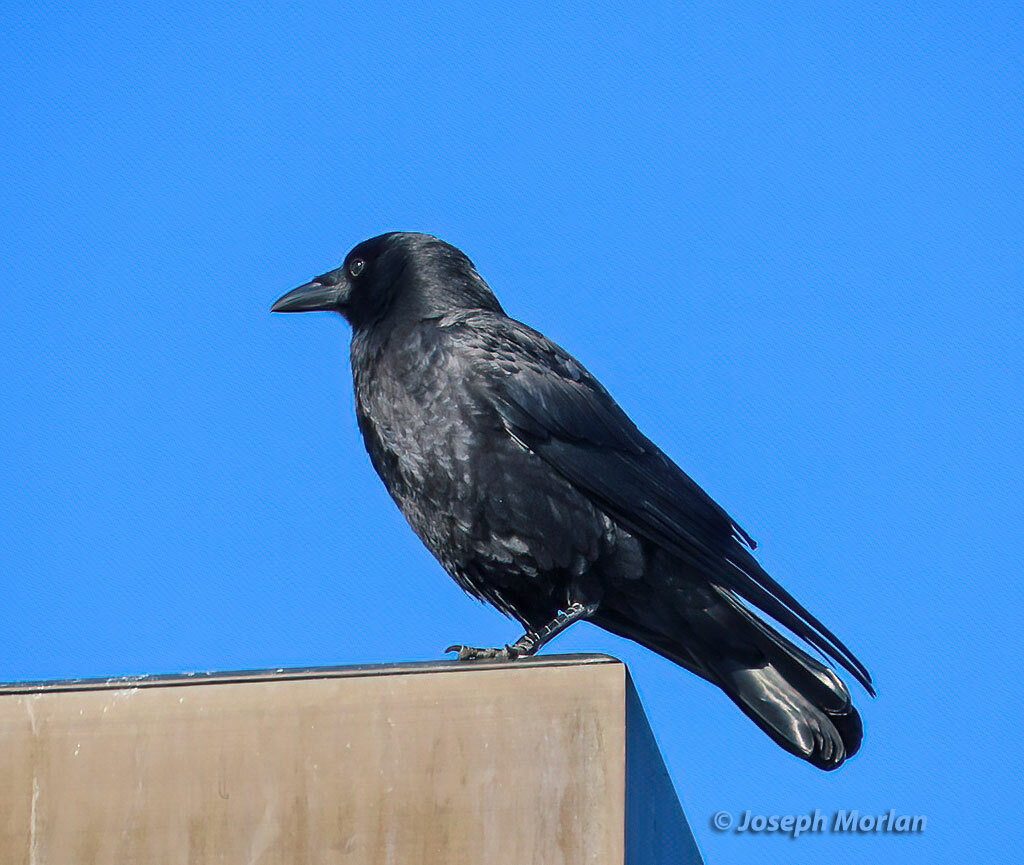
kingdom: Animalia
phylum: Chordata
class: Aves
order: Passeriformes
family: Corvidae
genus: Corvus
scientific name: Corvus brachyrhynchos
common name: American crow
